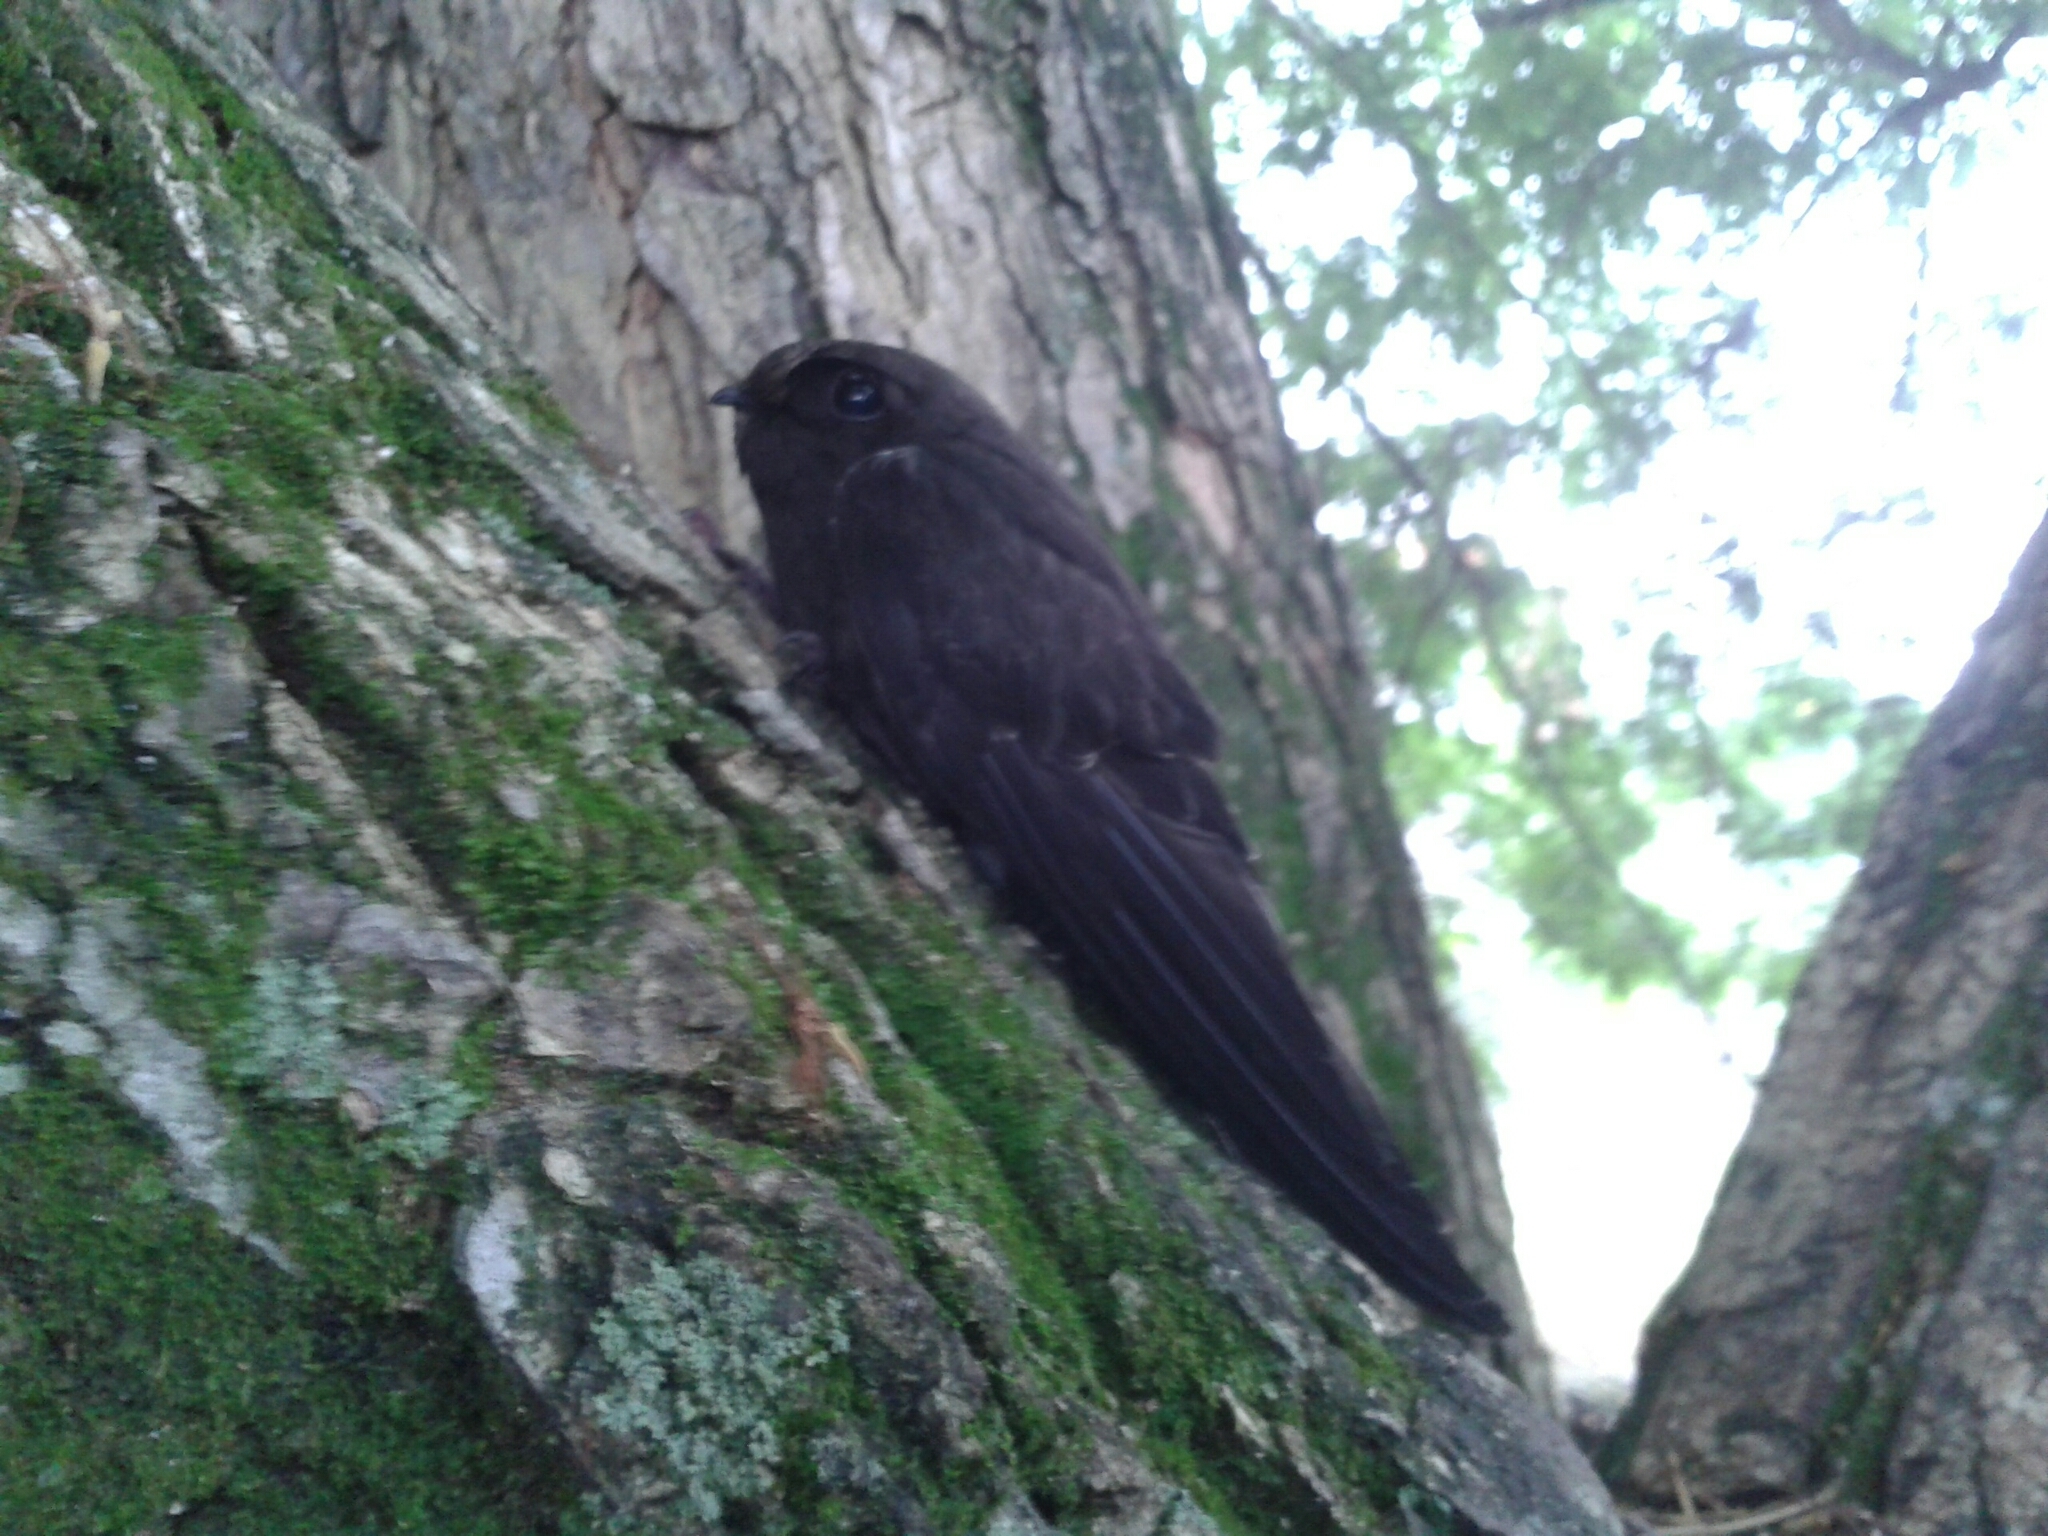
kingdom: Animalia
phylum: Chordata
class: Aves
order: Apodiformes
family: Apodidae
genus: Cypseloides
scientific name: Cypseloides cryptus
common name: White-chinned swift
